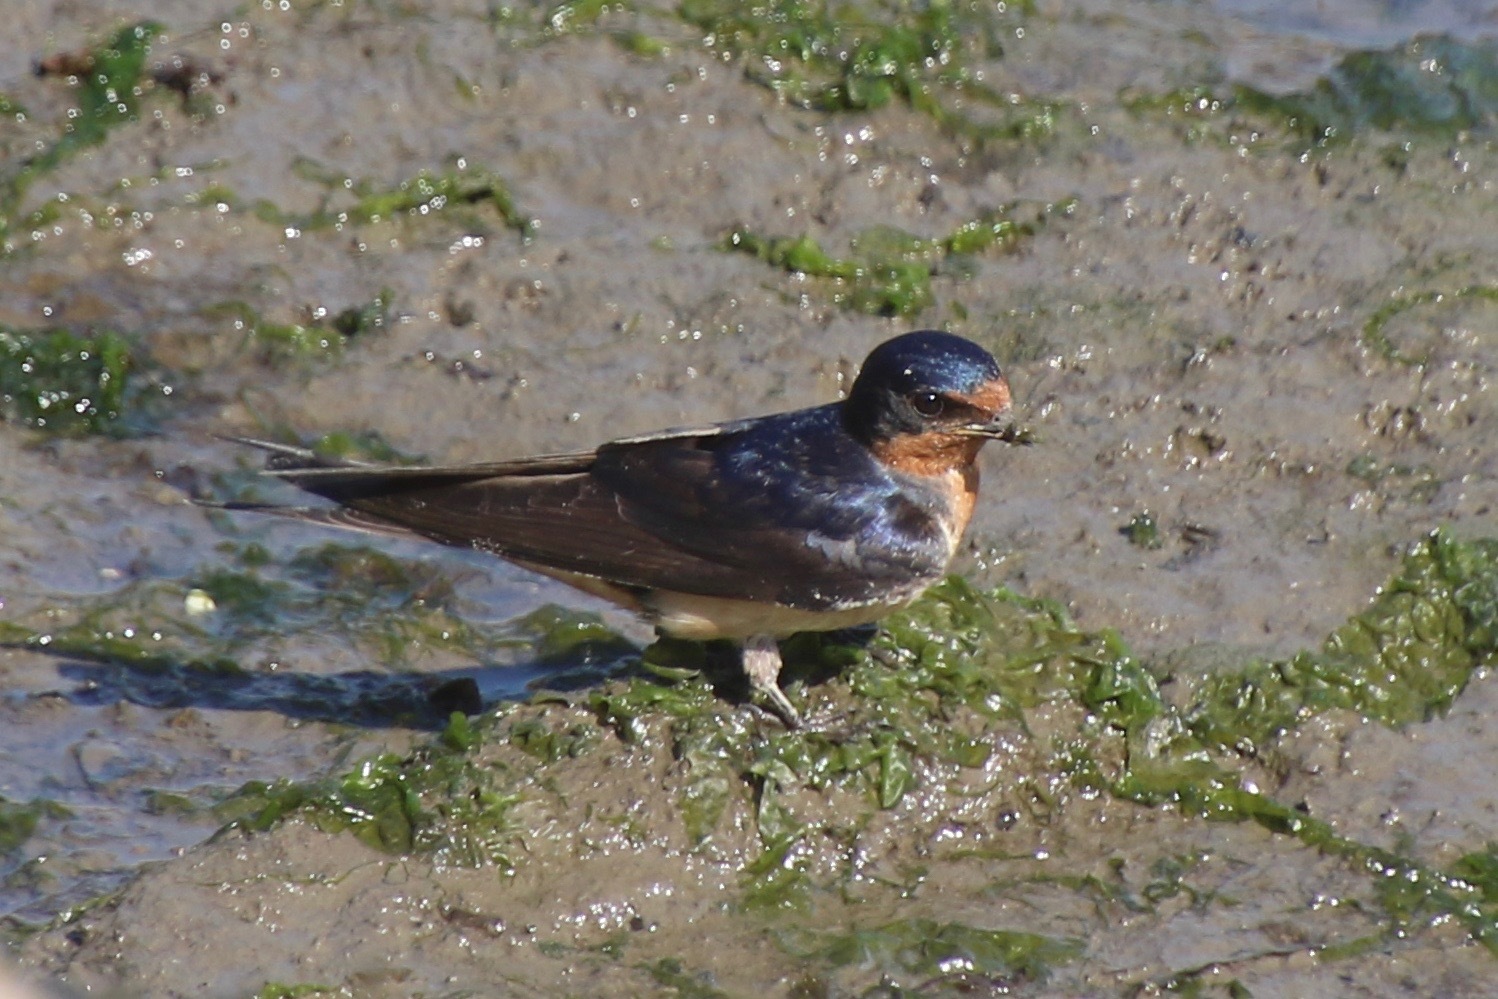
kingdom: Animalia
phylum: Chordata
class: Aves
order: Passeriformes
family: Hirundinidae
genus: Hirundo
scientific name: Hirundo rustica
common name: Barn swallow
